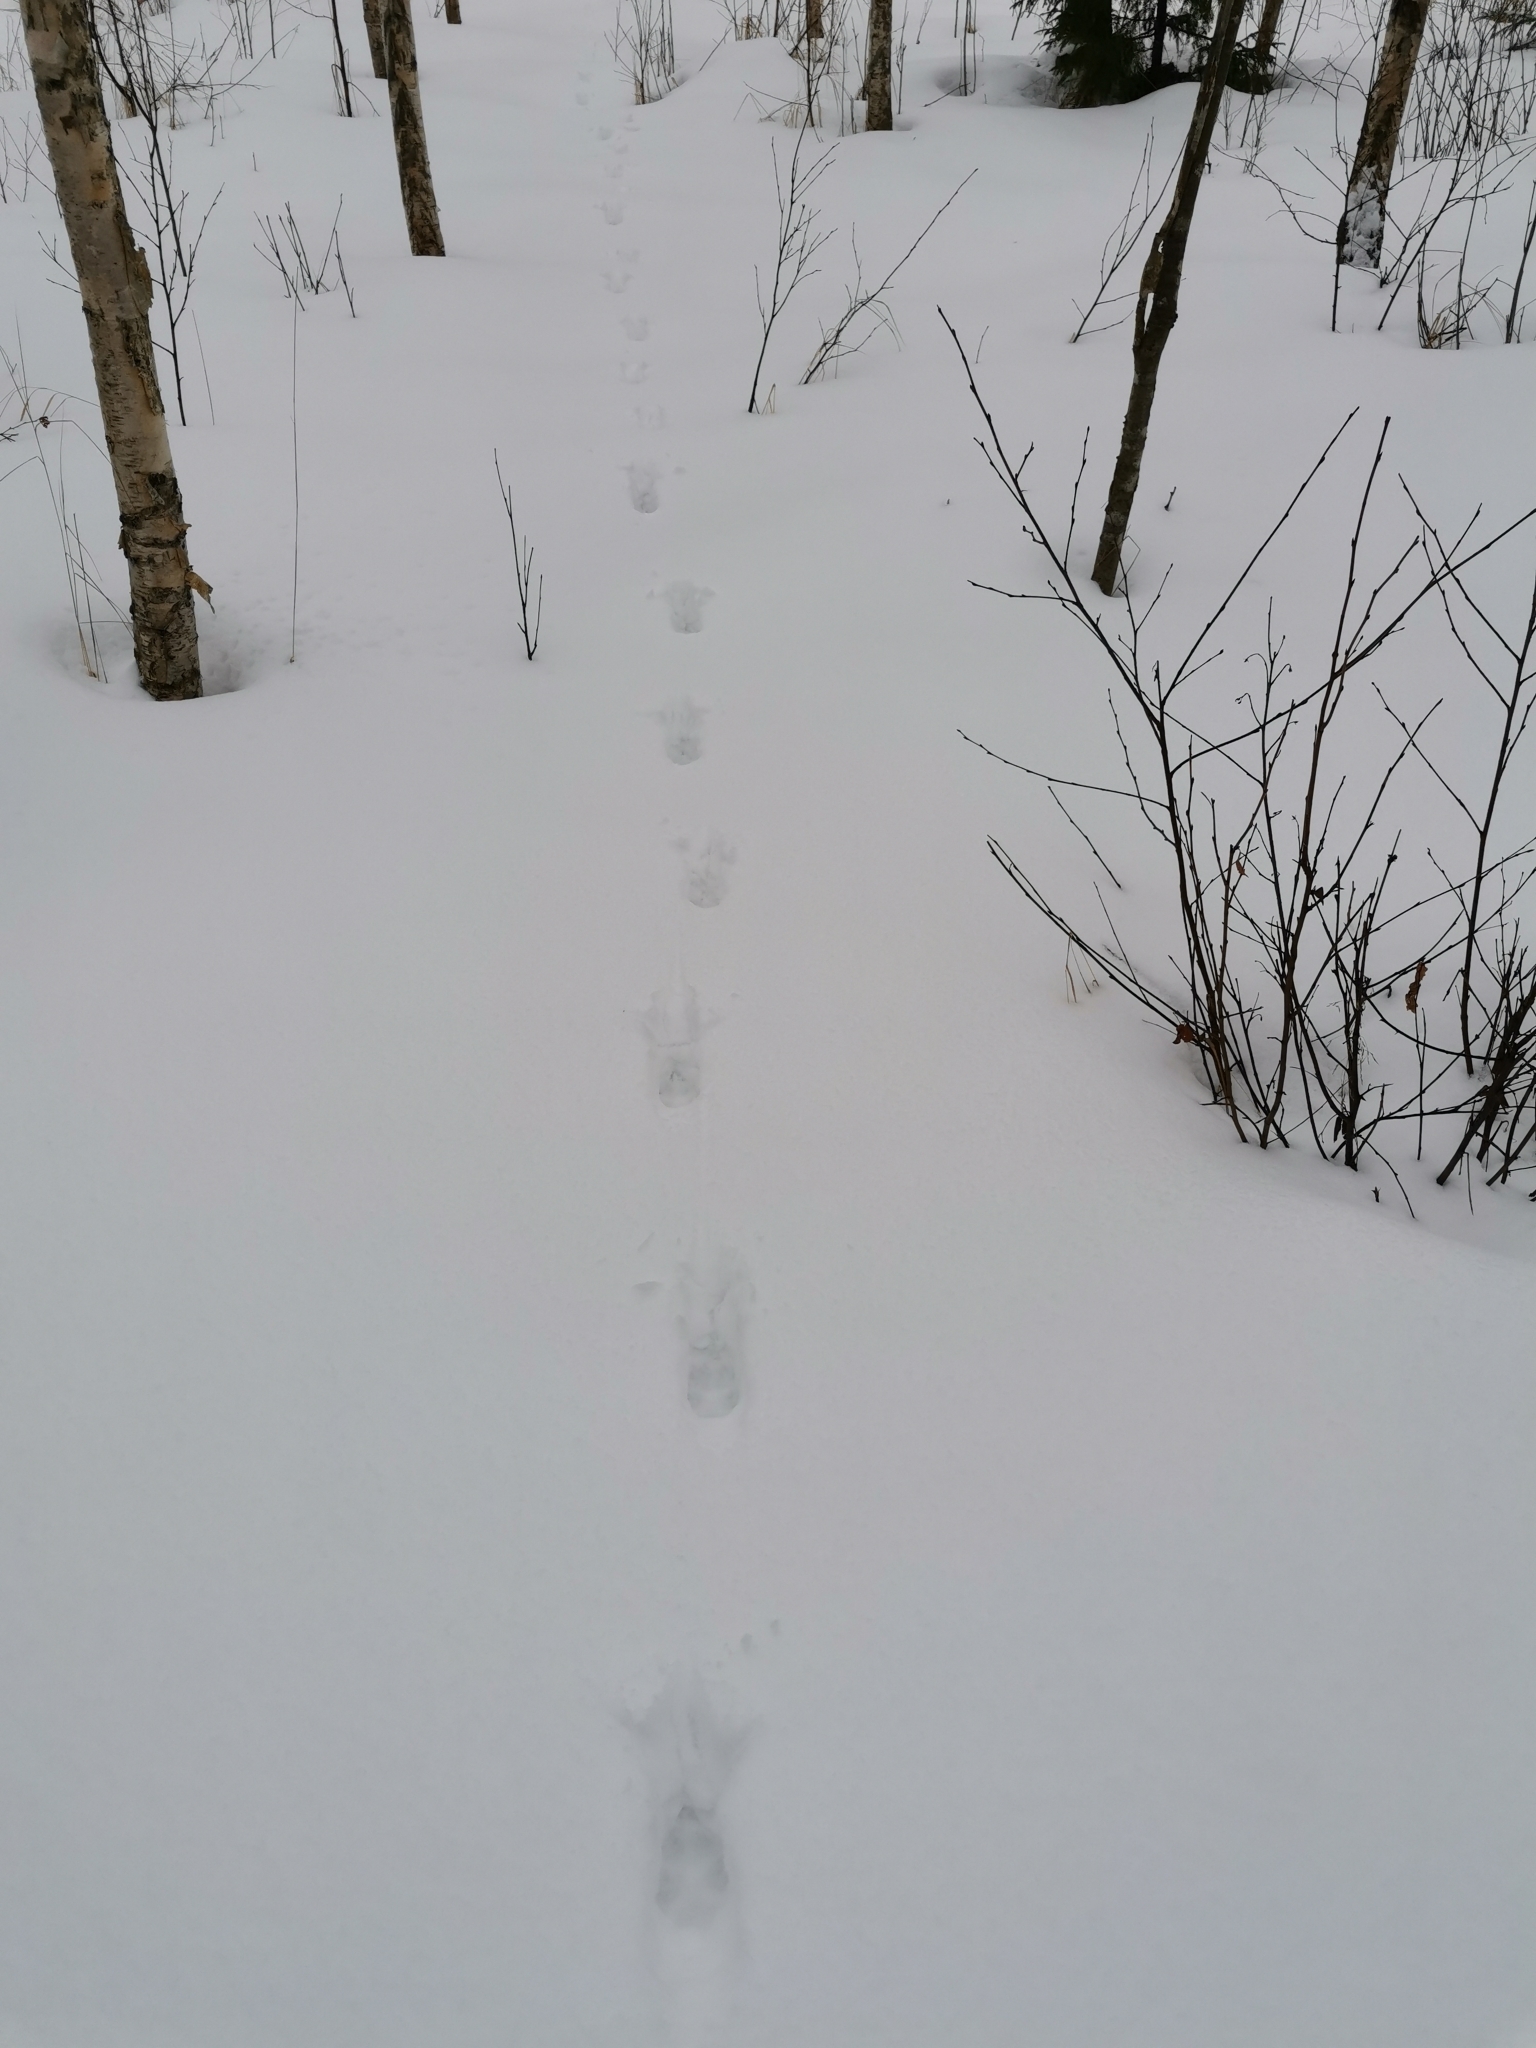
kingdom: Animalia
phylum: Chordata
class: Mammalia
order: Carnivora
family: Canidae
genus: Vulpes
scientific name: Vulpes vulpes
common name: Red fox
